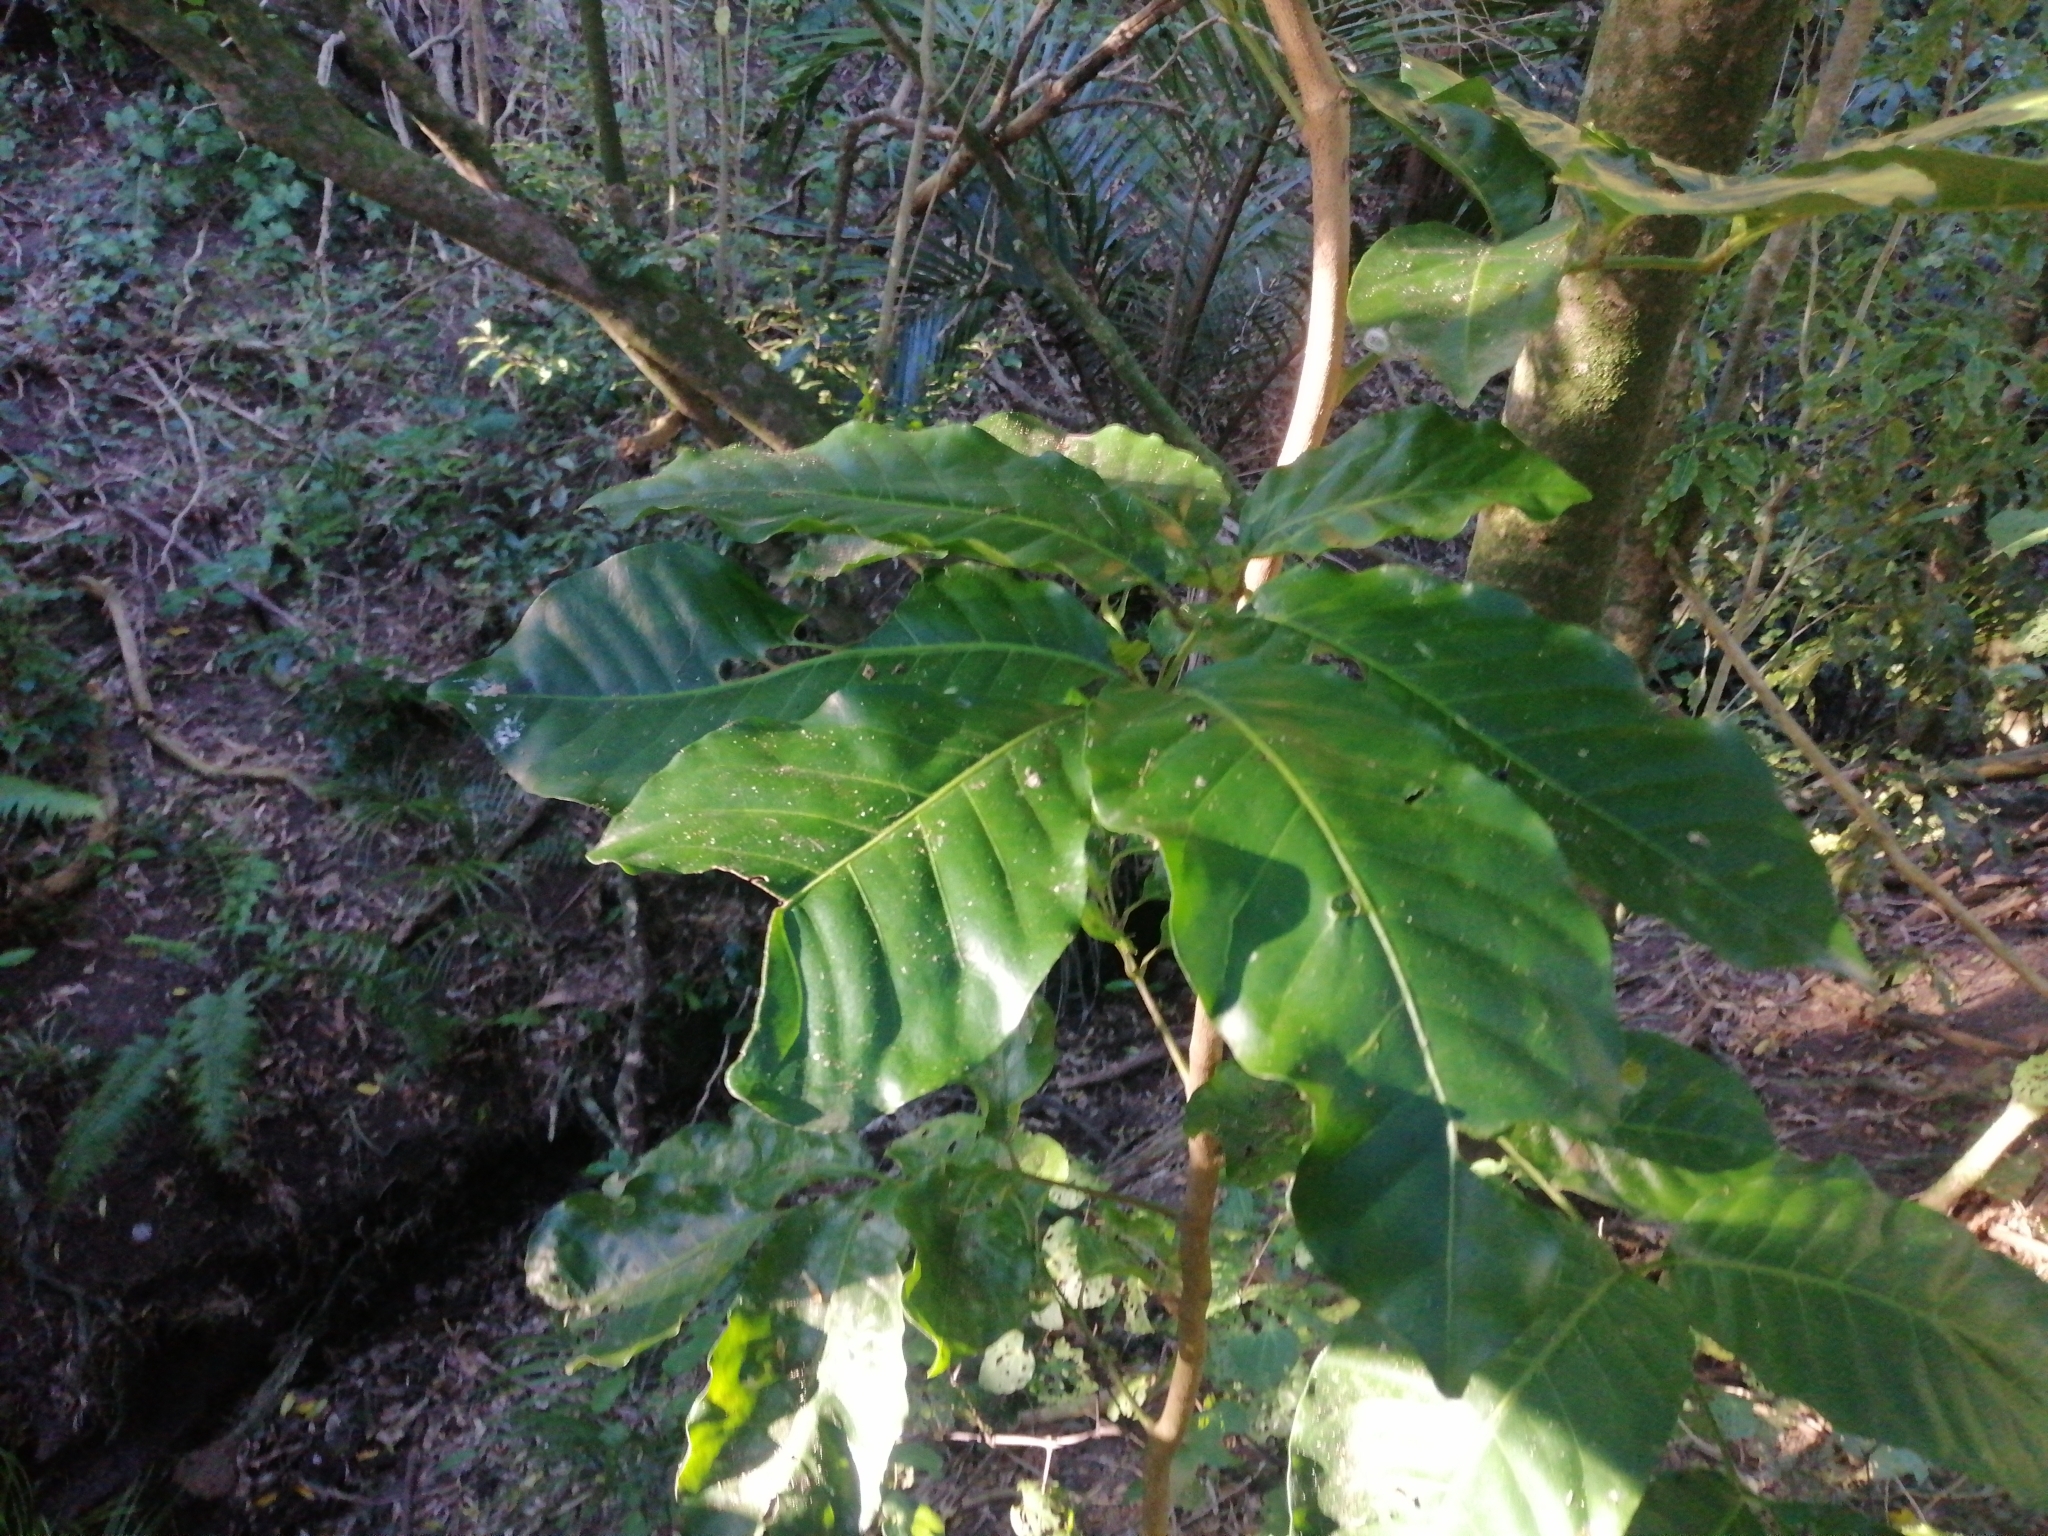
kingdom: Plantae
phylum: Tracheophyta
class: Magnoliopsida
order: Sapindales
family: Meliaceae
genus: Didymocheton
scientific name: Didymocheton spectabilis
